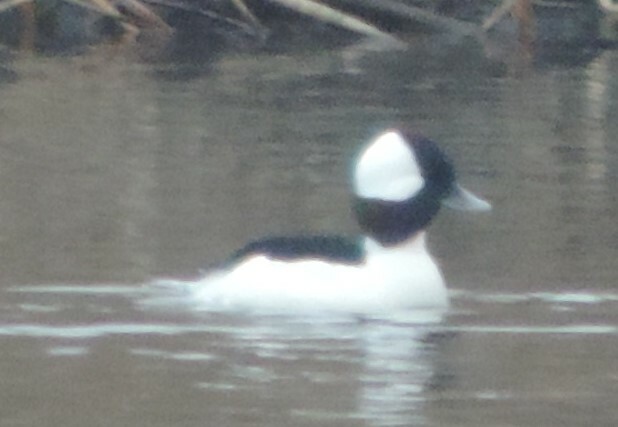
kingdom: Animalia
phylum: Chordata
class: Aves
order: Anseriformes
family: Anatidae
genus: Bucephala
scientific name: Bucephala albeola
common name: Bufflehead
